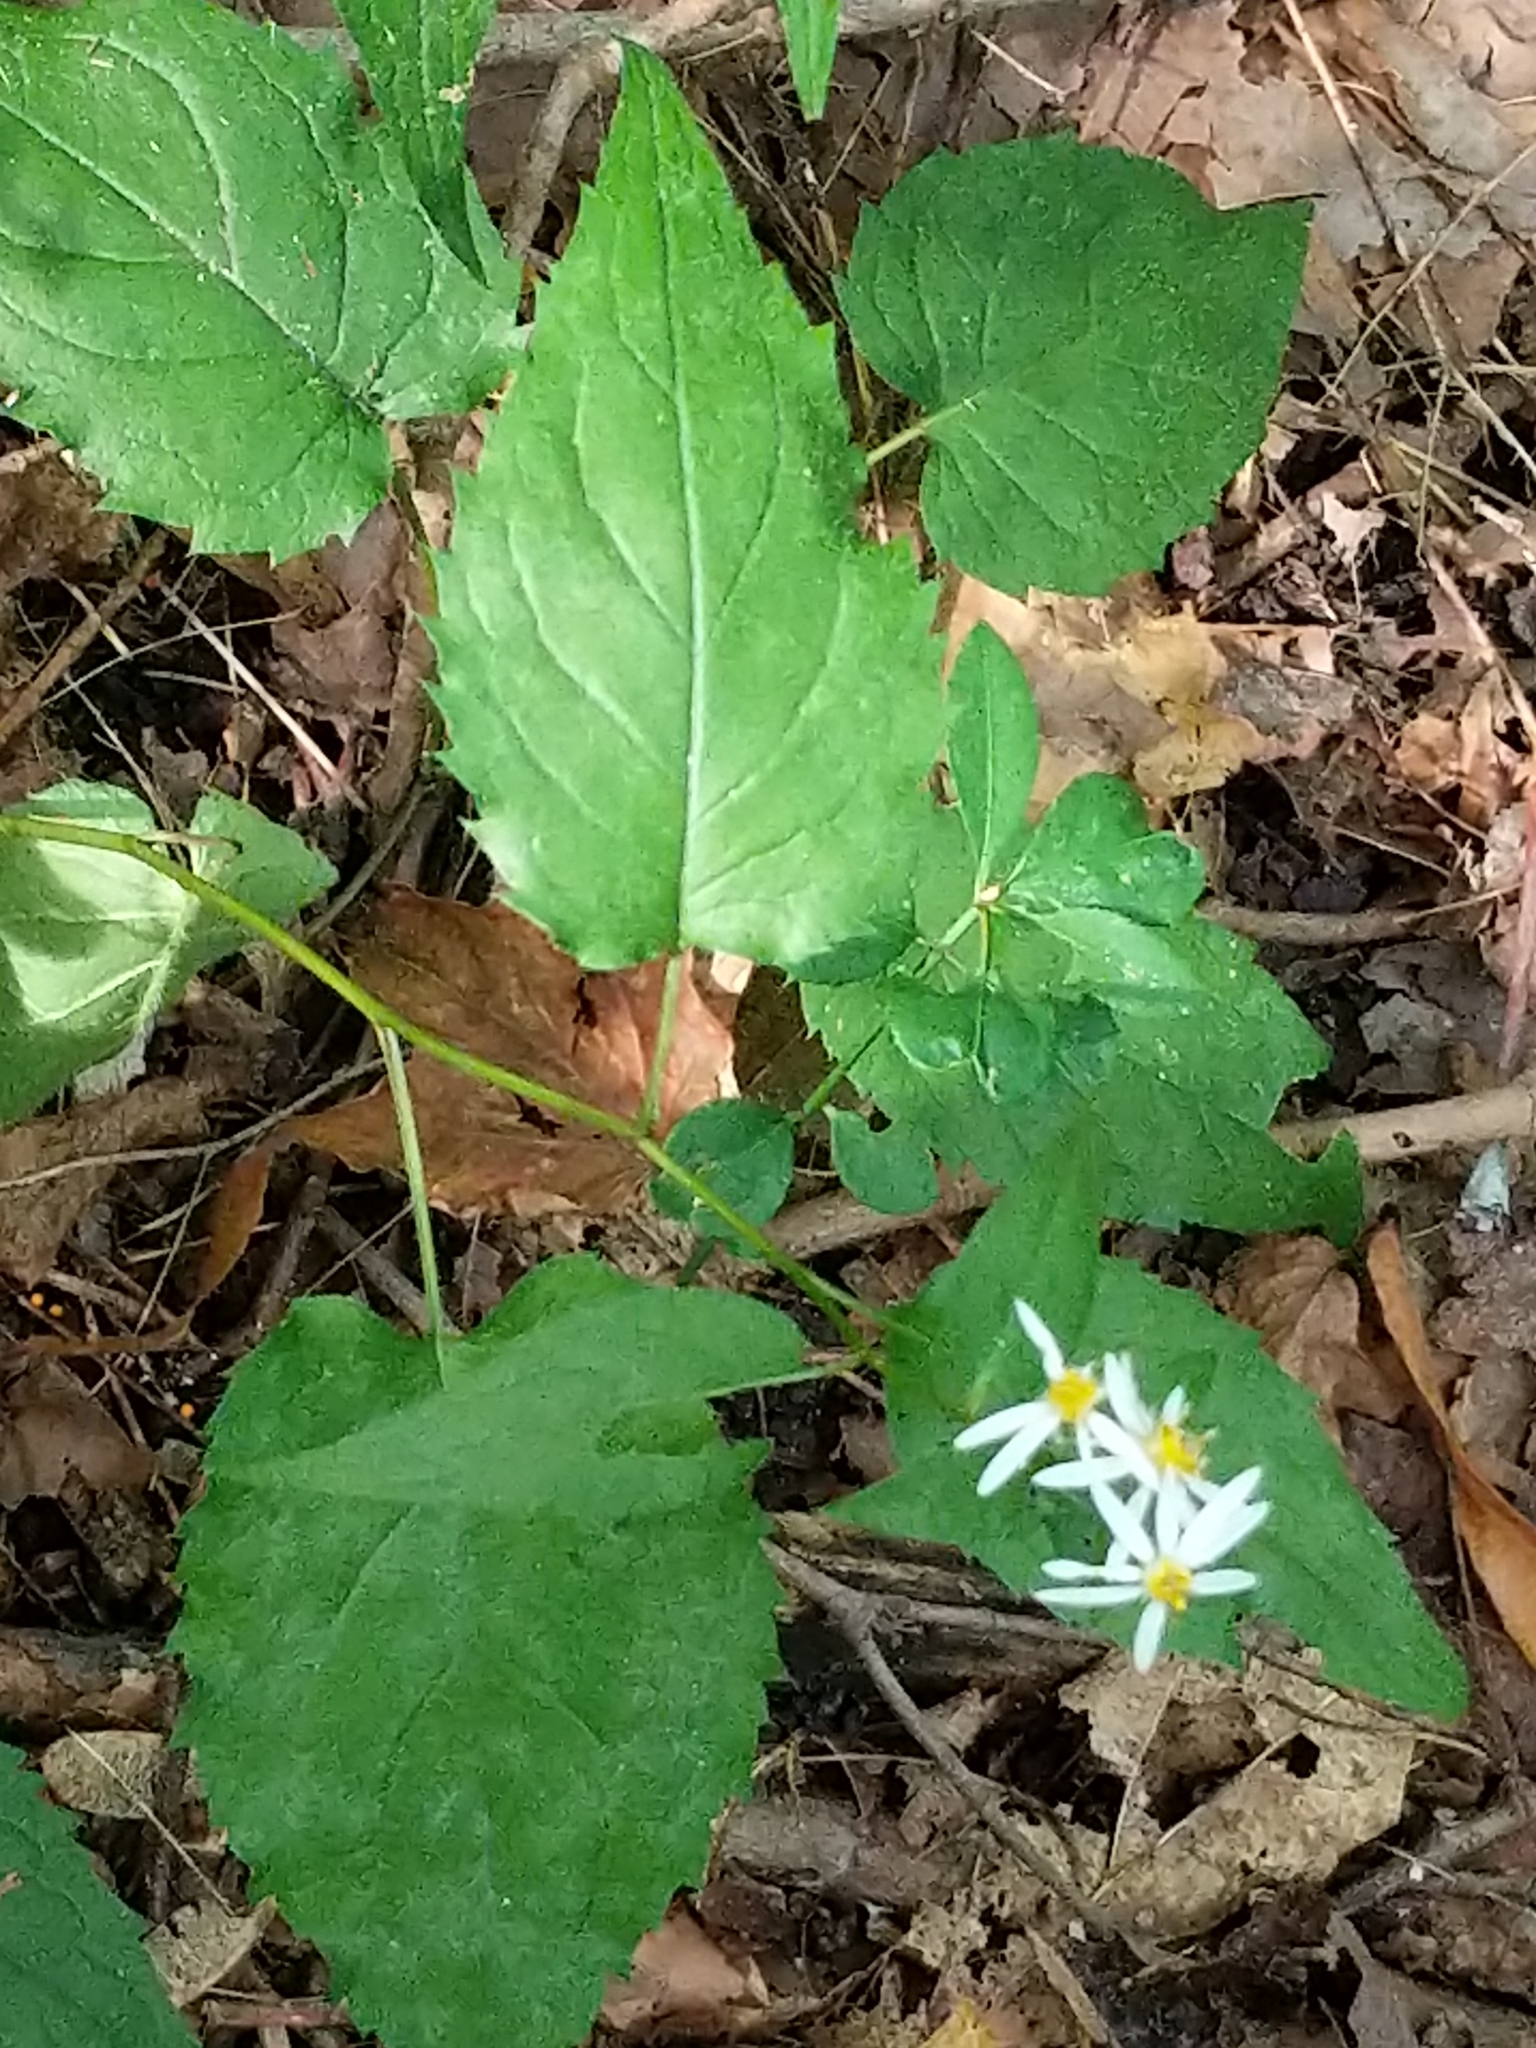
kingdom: Plantae
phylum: Tracheophyta
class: Magnoliopsida
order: Asterales
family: Asteraceae
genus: Eurybia
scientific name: Eurybia divaricata
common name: White wood aster
